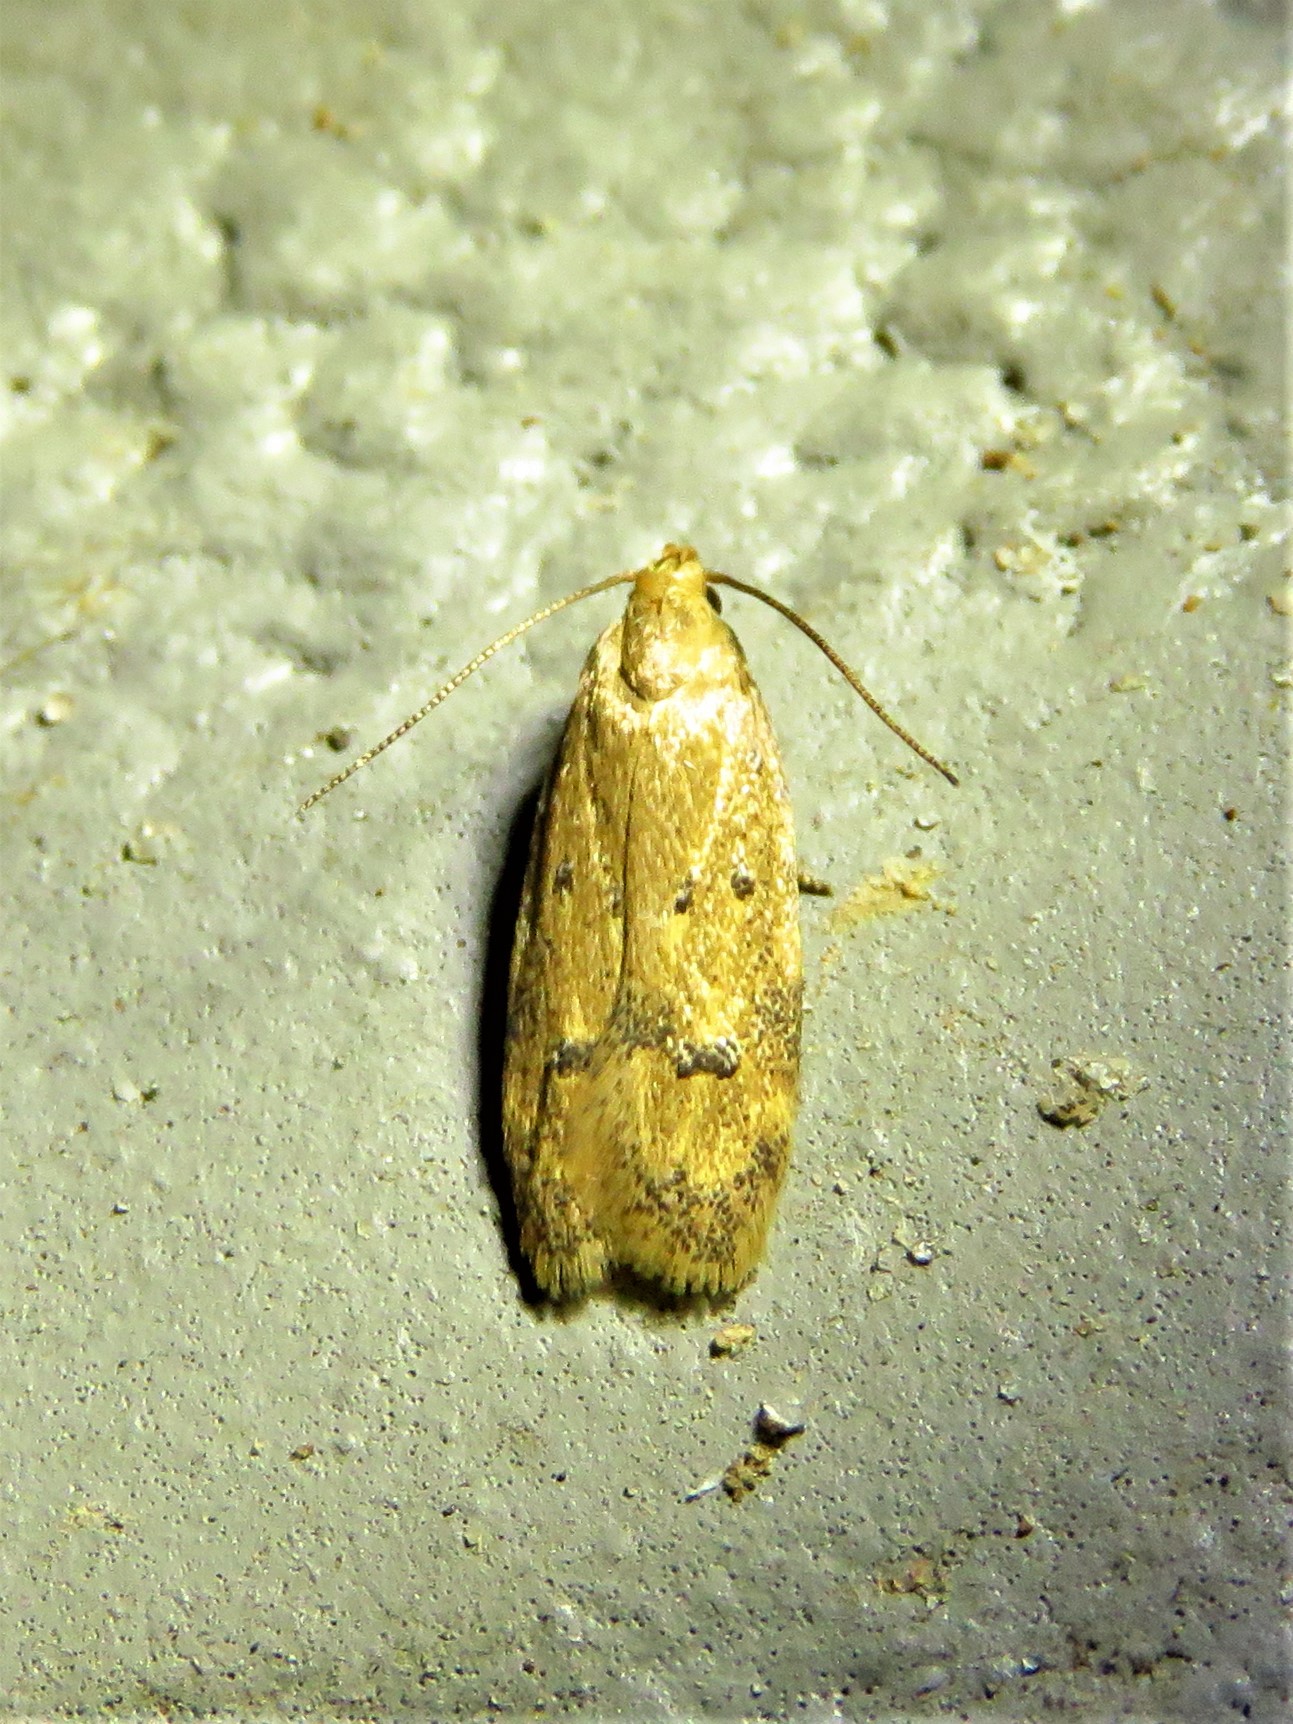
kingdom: Animalia
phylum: Arthropoda
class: Insecta
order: Lepidoptera
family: Autostichidae
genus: Gerdana
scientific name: Gerdana caritella
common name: Gerdana moth
